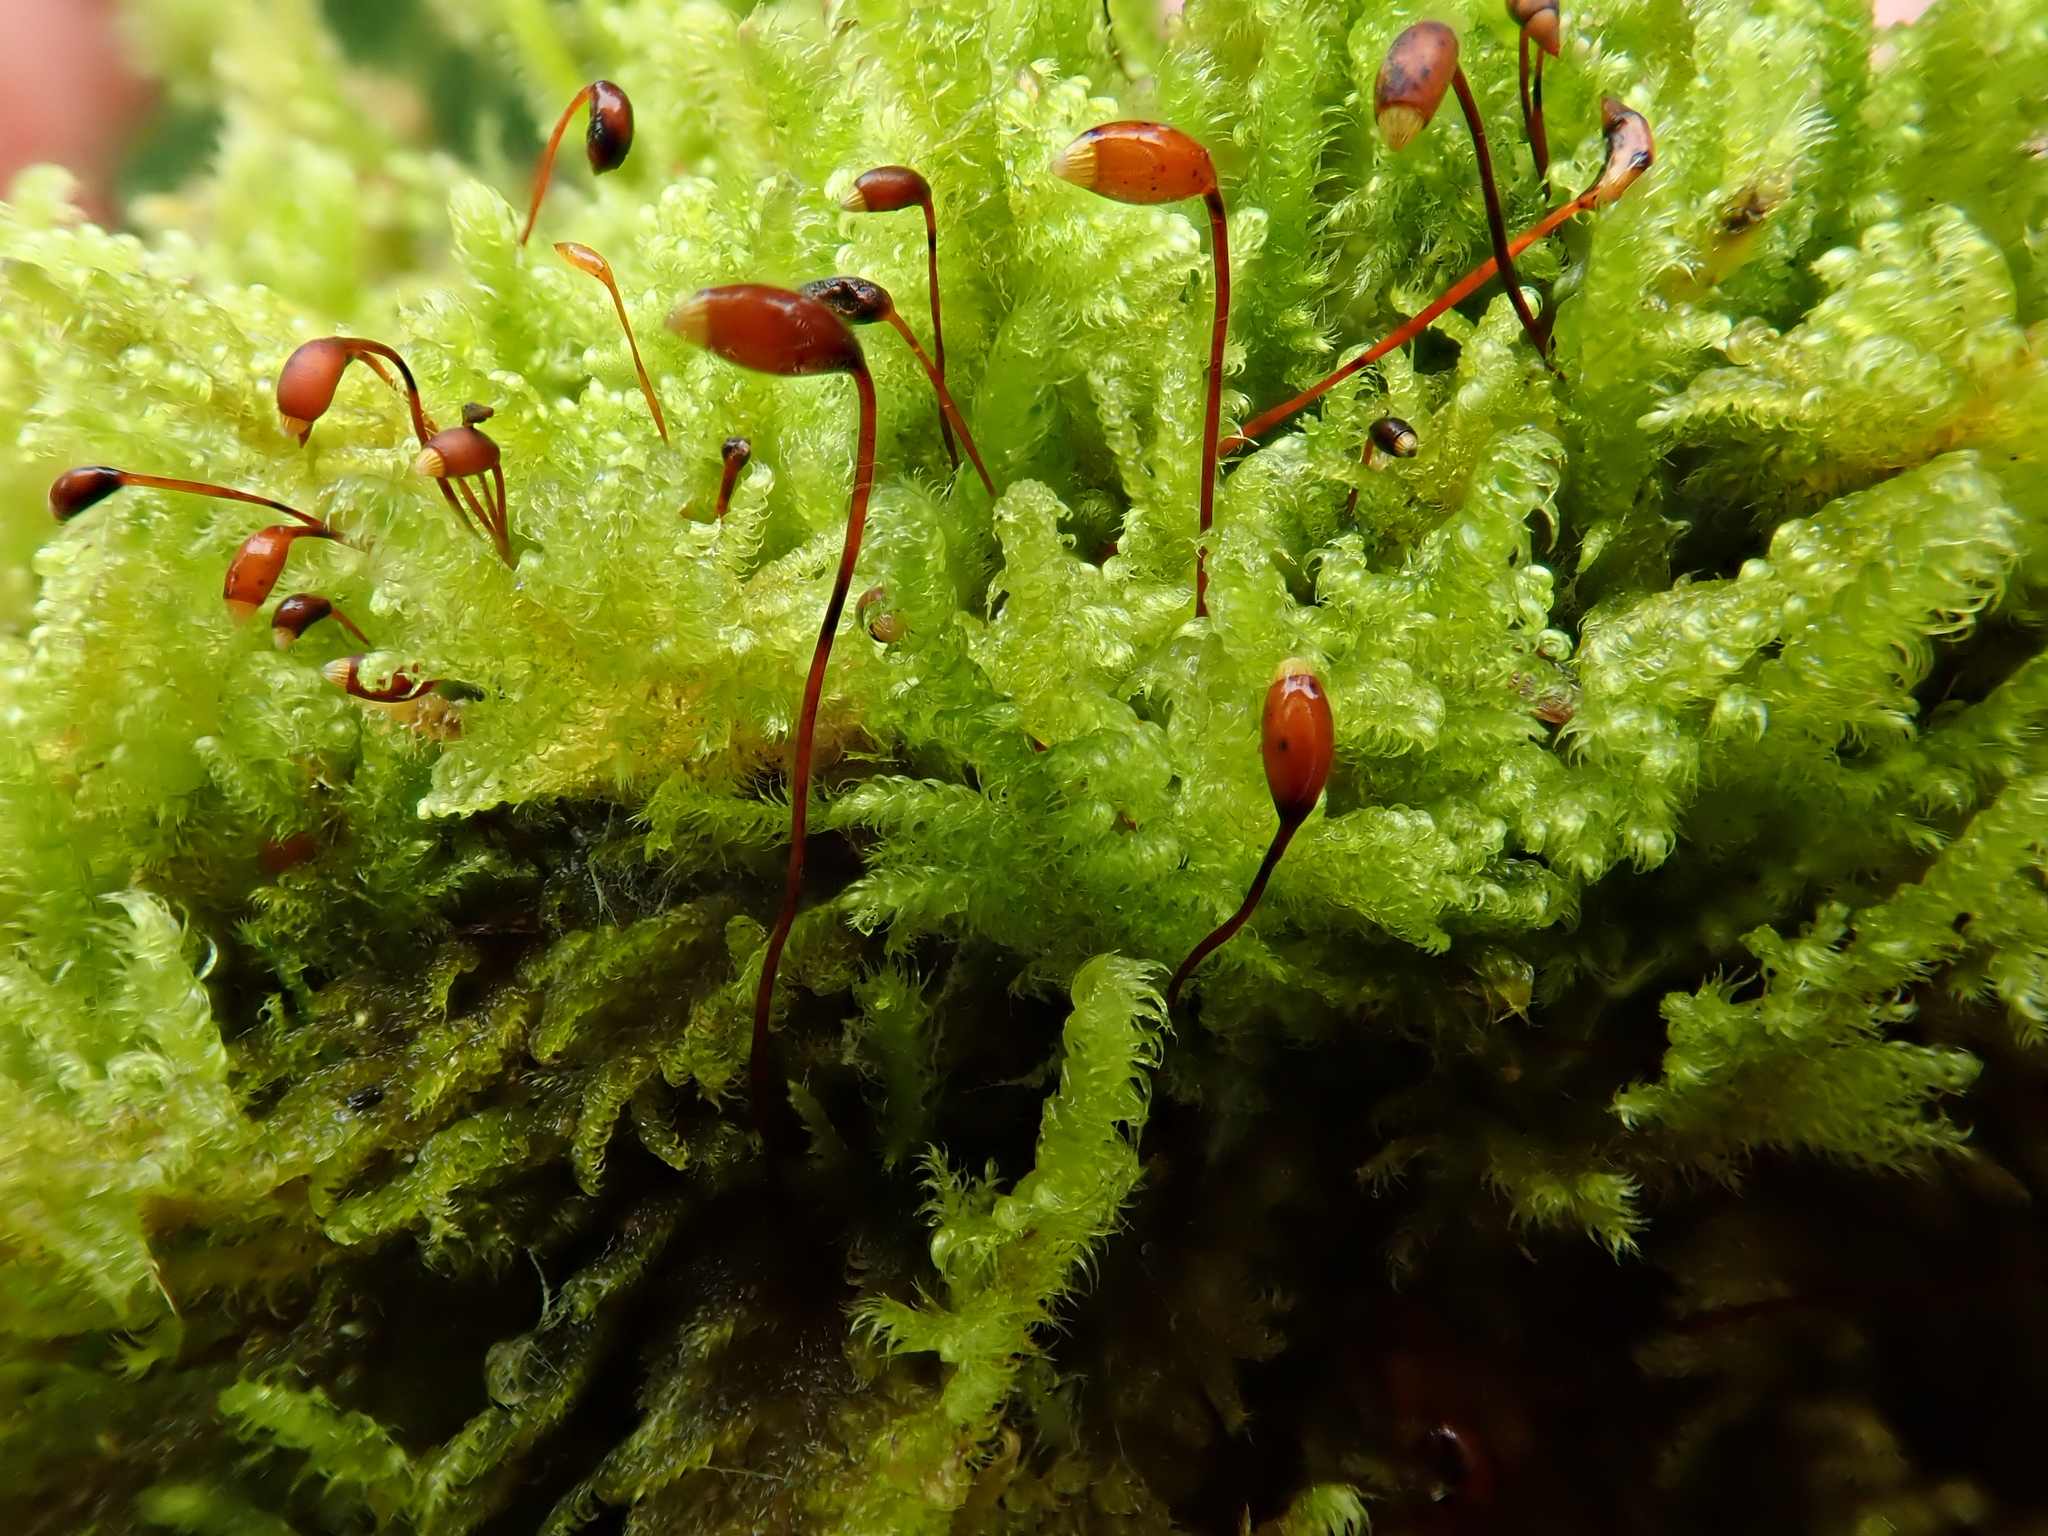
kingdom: Plantae
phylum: Bryophyta
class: Bryopsida
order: Hypnales
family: Myuriaceae
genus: Ctenidium
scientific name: Ctenidium molluscum
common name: Chalk comb-moss
